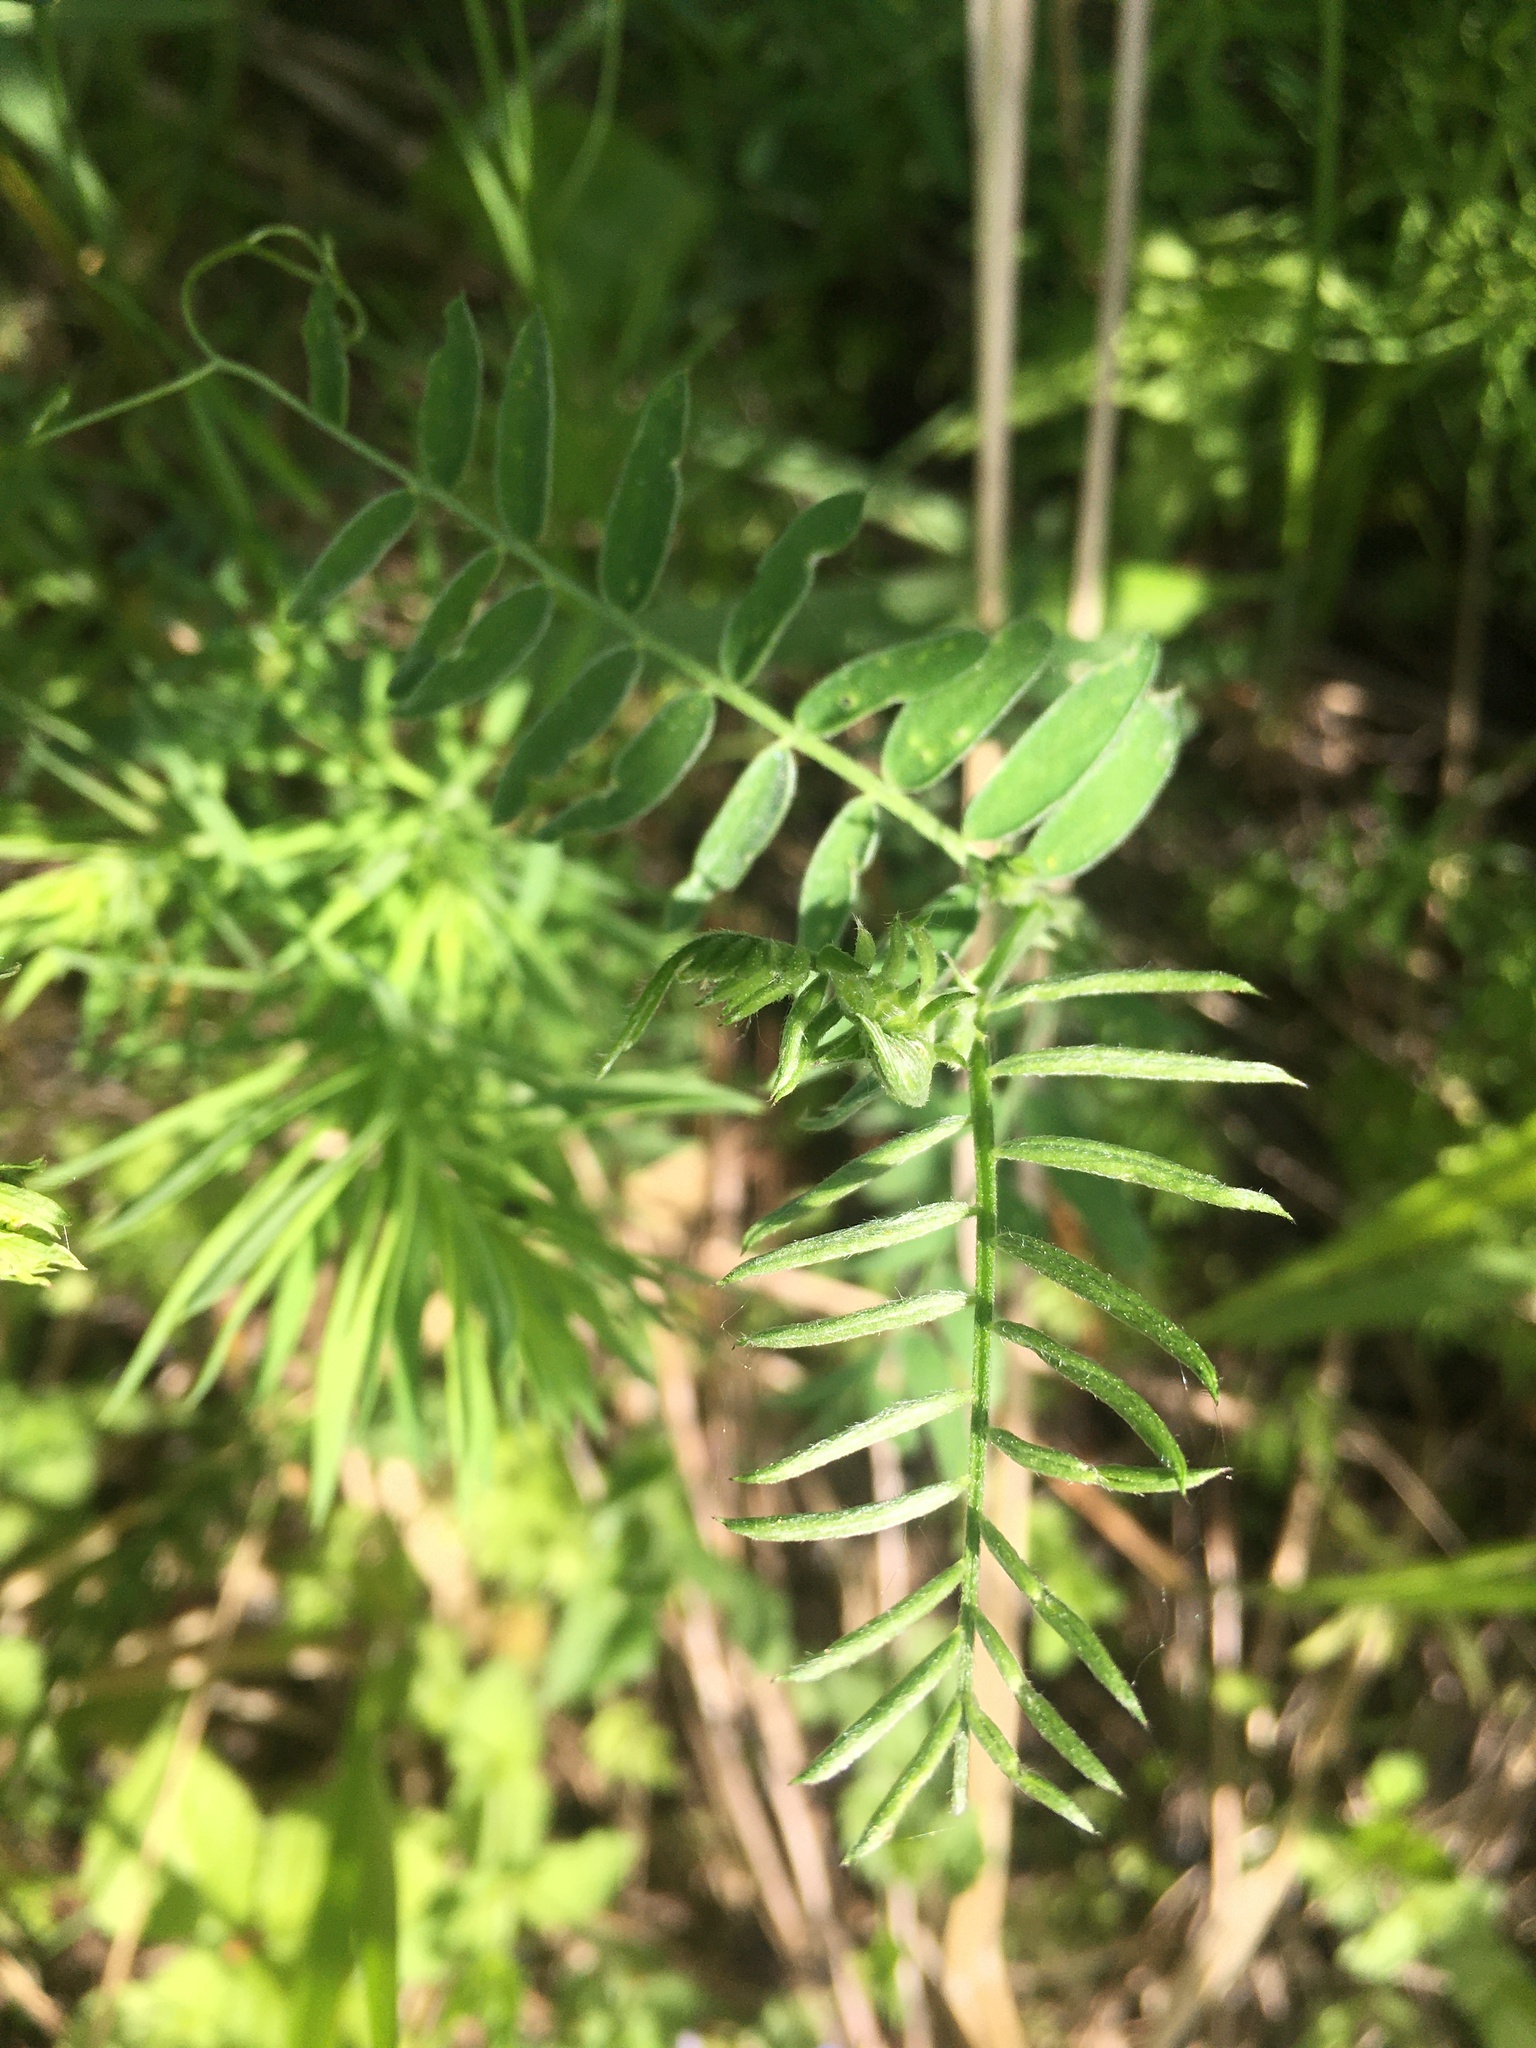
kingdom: Plantae
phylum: Tracheophyta
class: Magnoliopsida
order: Fabales
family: Fabaceae
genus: Vicia
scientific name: Vicia cracca
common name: Bird vetch
